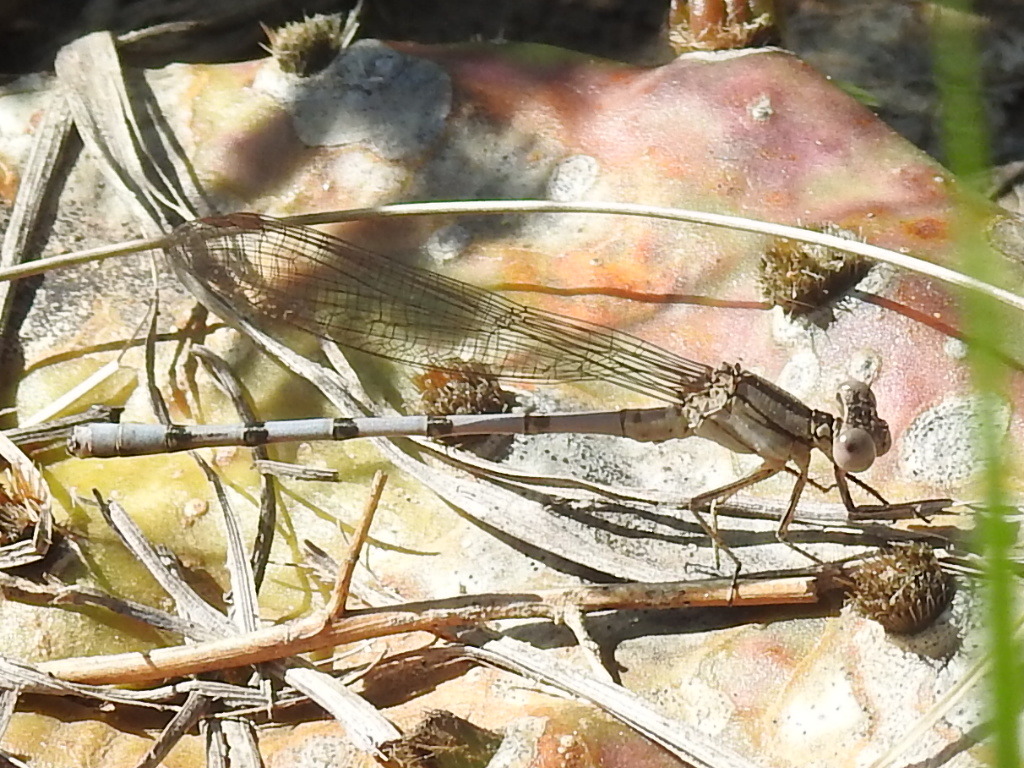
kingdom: Animalia
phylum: Arthropoda
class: Insecta
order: Odonata
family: Coenagrionidae
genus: Argia
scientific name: Argia nahuana
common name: Aztec dancer
